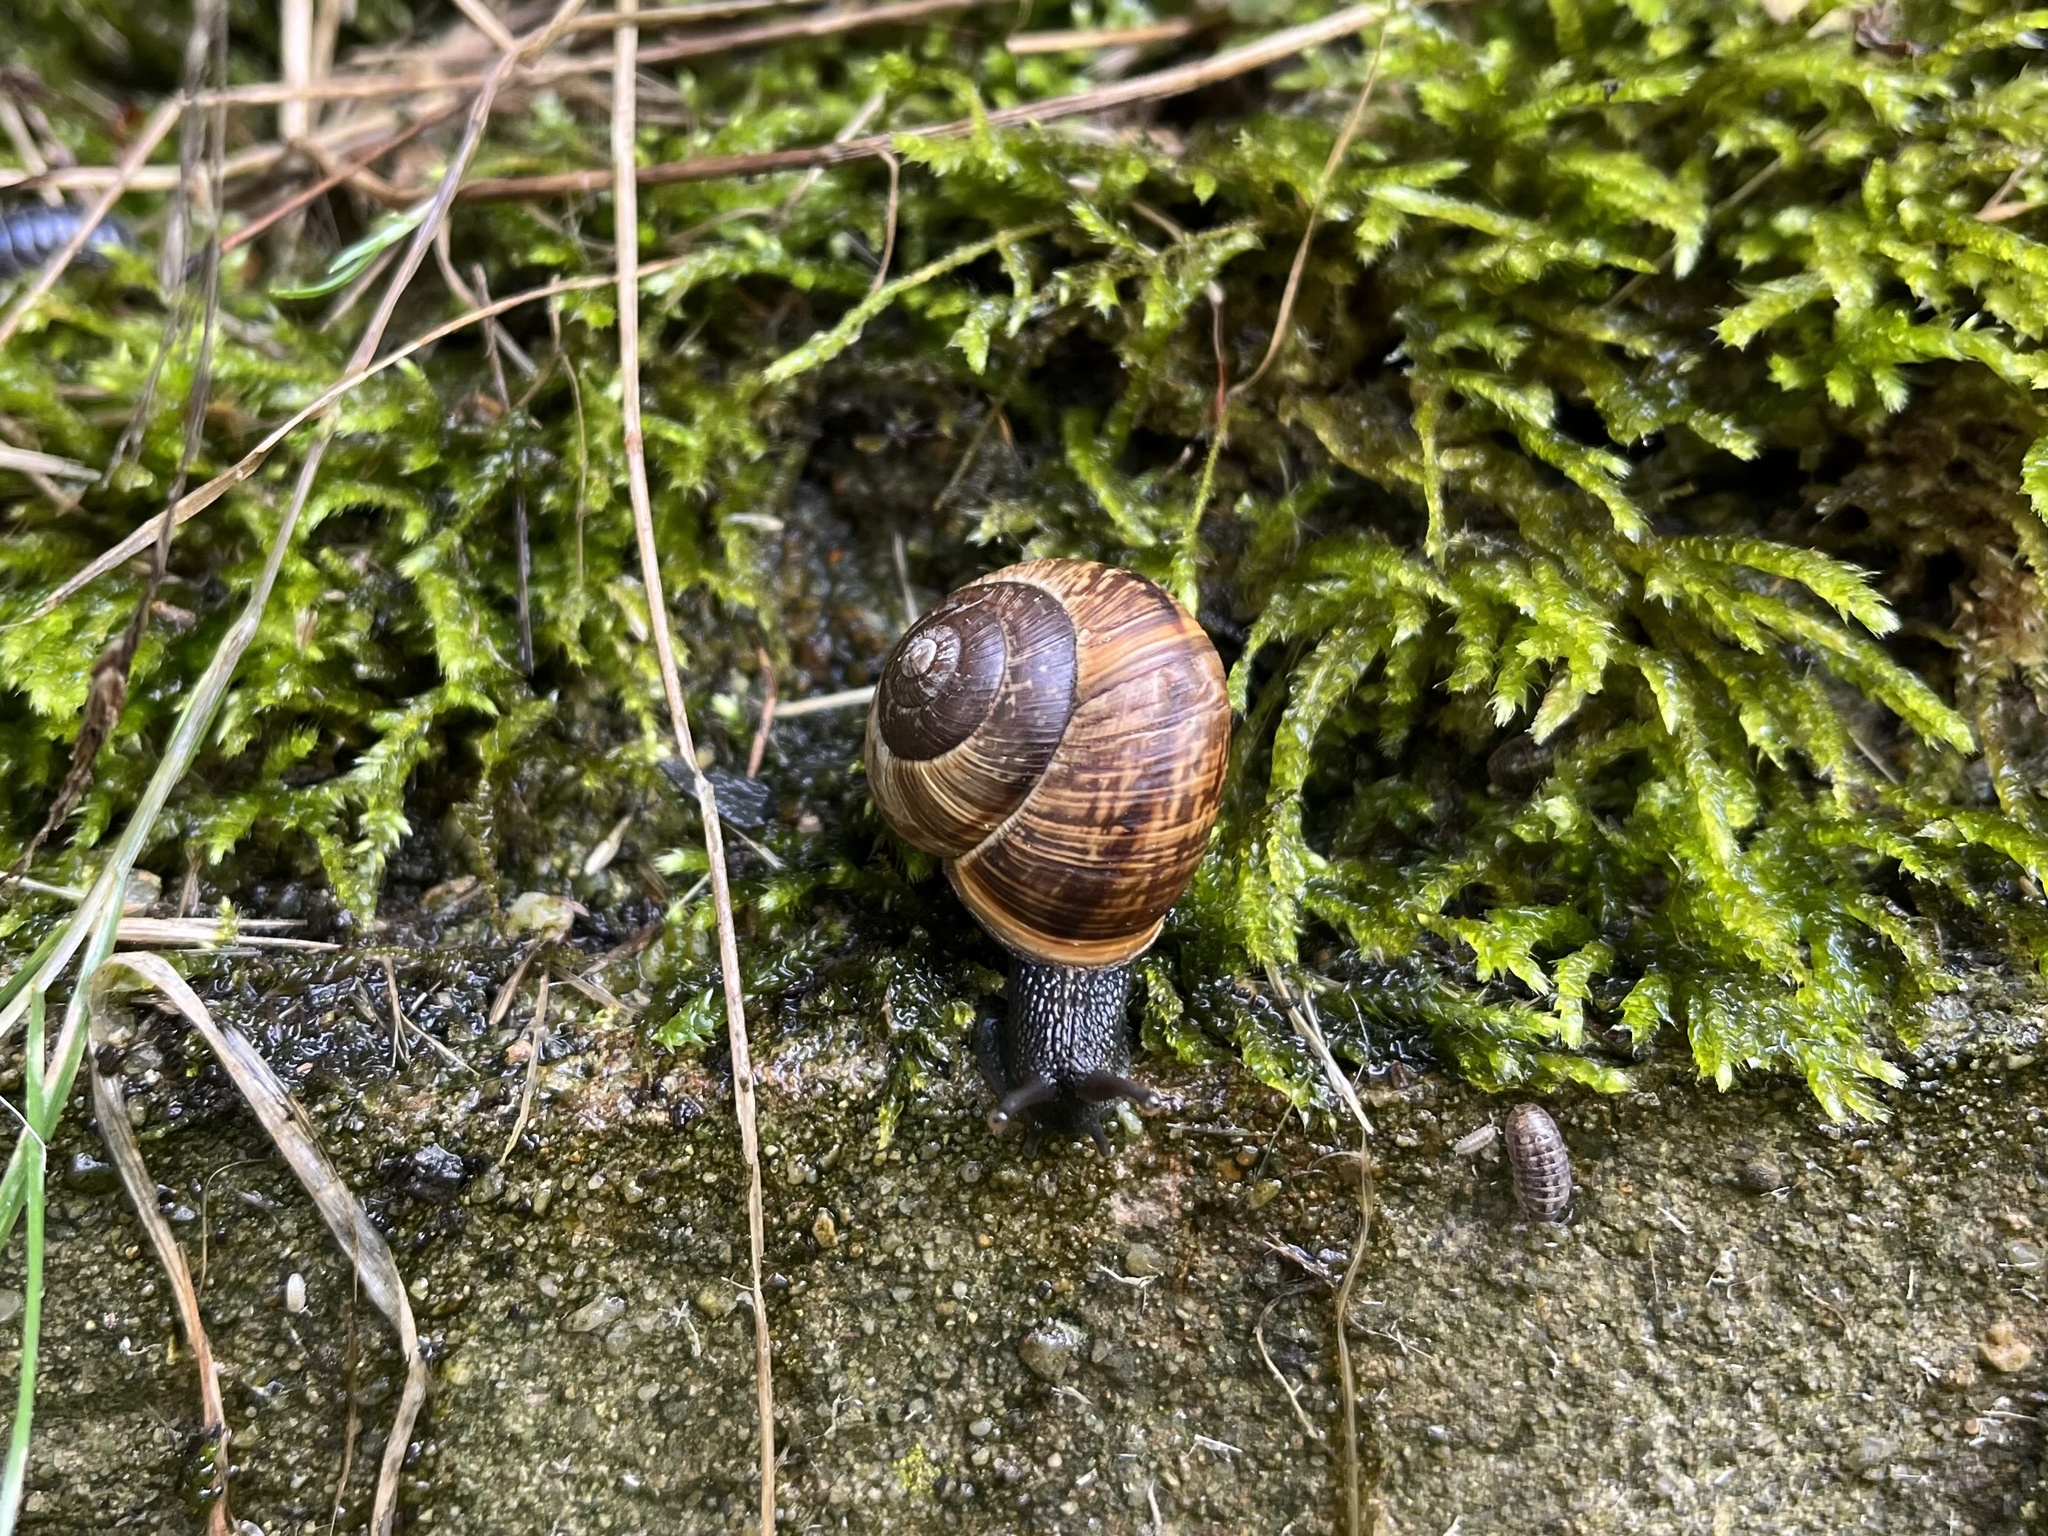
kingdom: Animalia
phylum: Mollusca
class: Gastropoda
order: Stylommatophora
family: Helicidae
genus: Arianta
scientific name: Arianta arbustorum
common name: Copse snail
